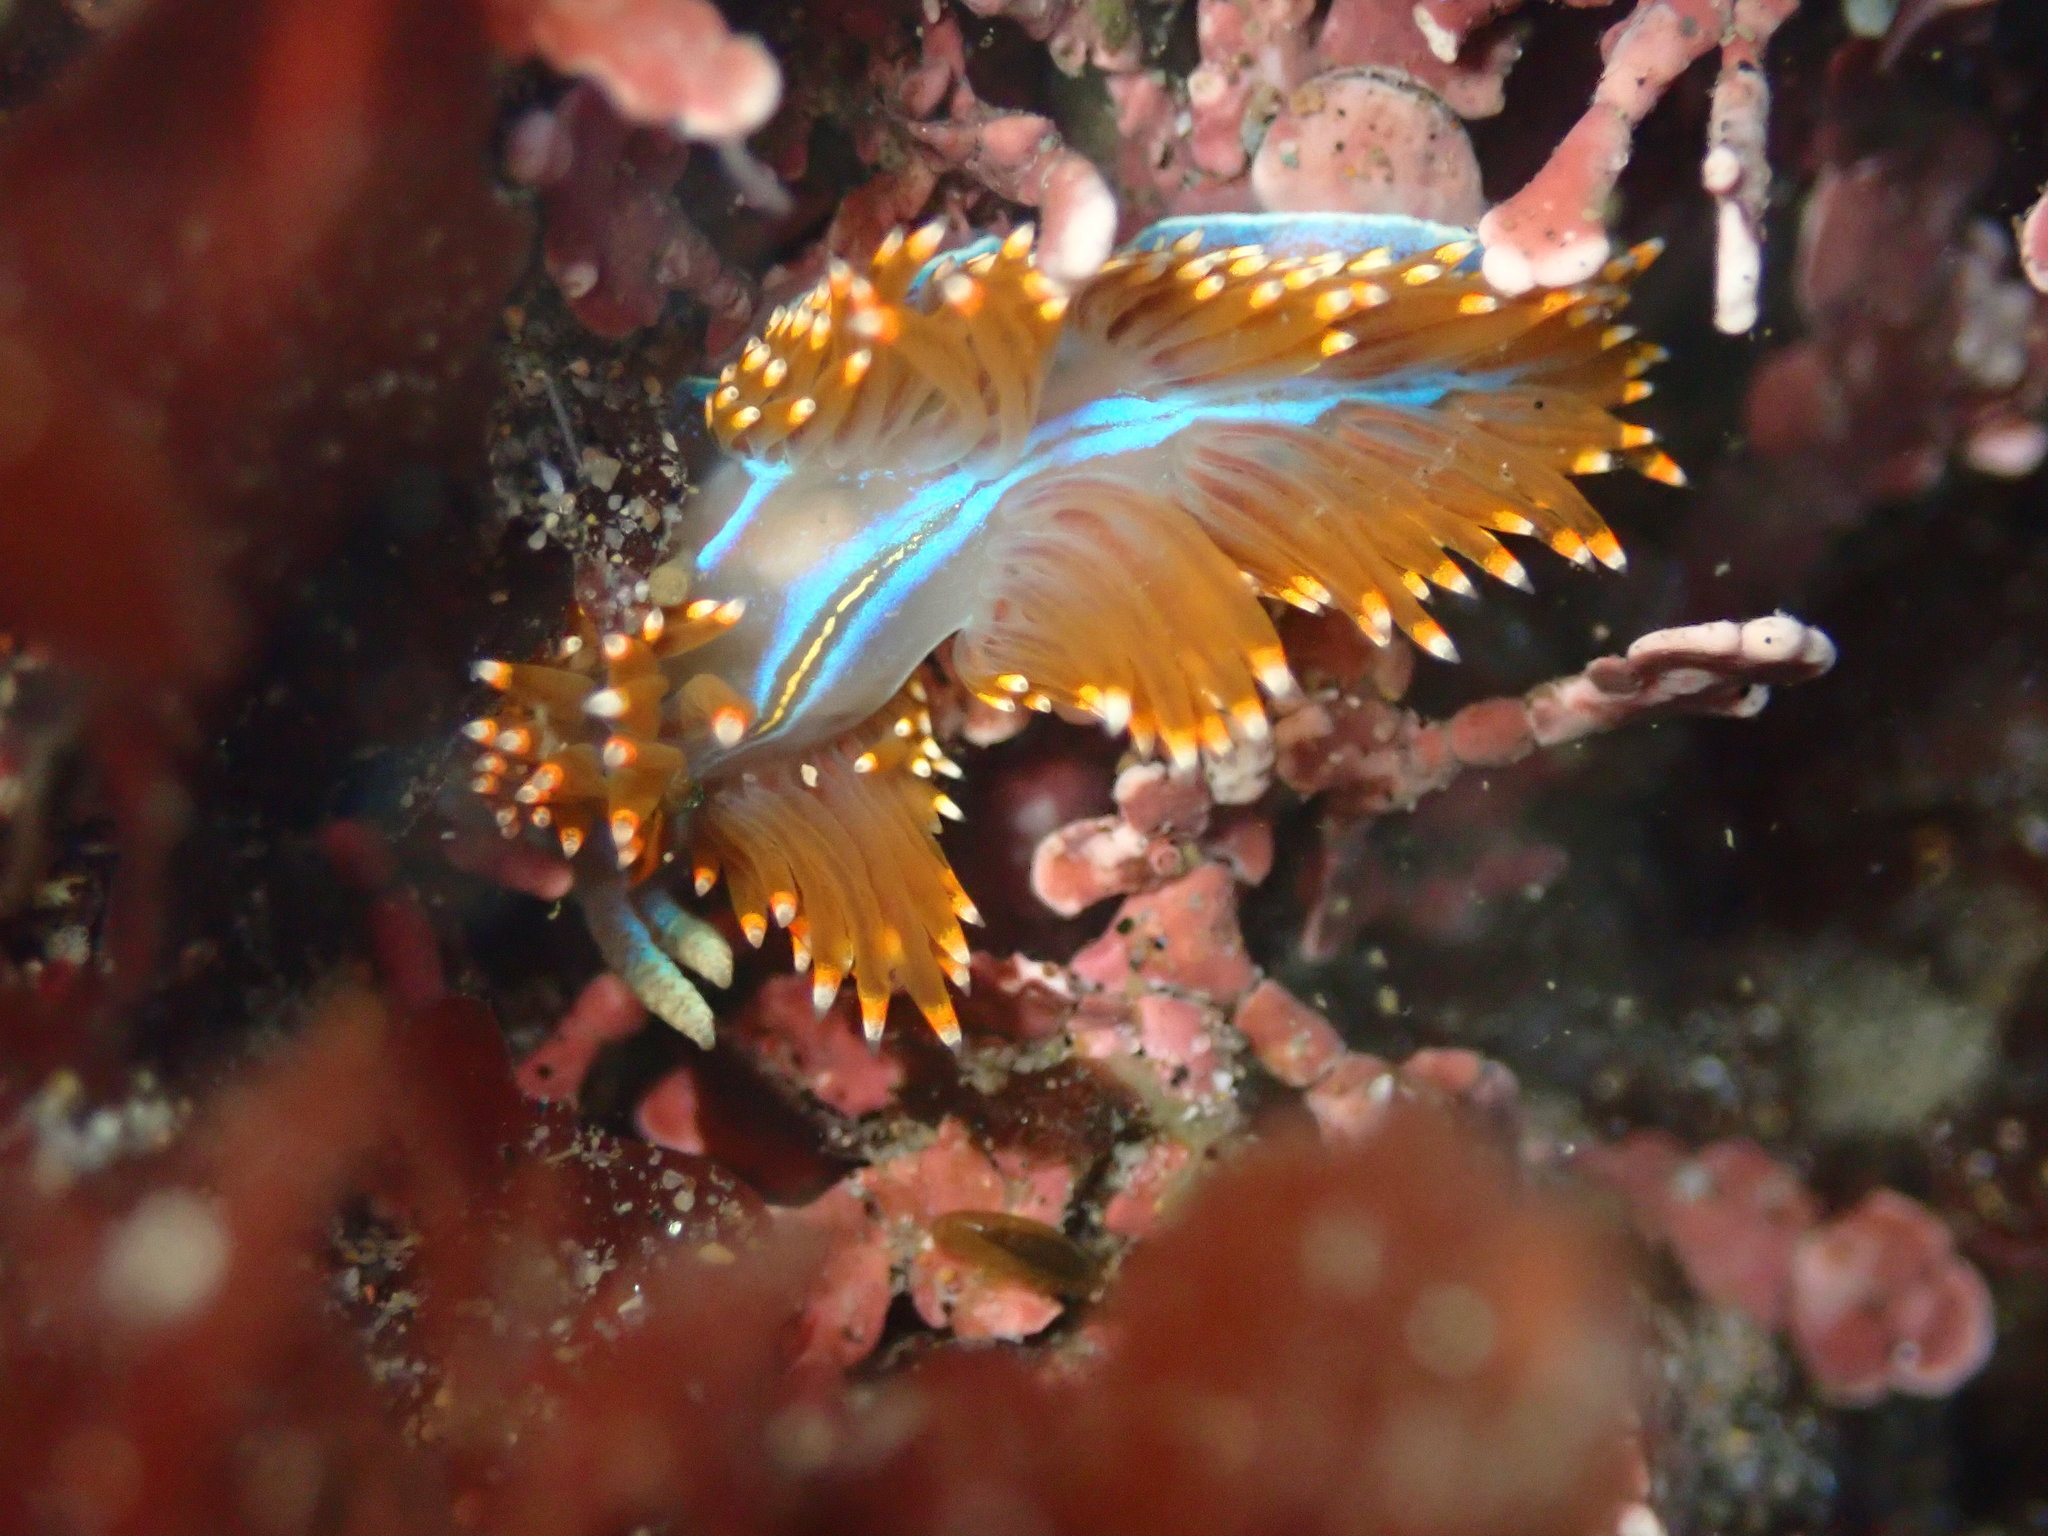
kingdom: Animalia
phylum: Mollusca
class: Gastropoda
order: Nudibranchia
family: Myrrhinidae
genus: Hermissenda
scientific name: Hermissenda opalescens
